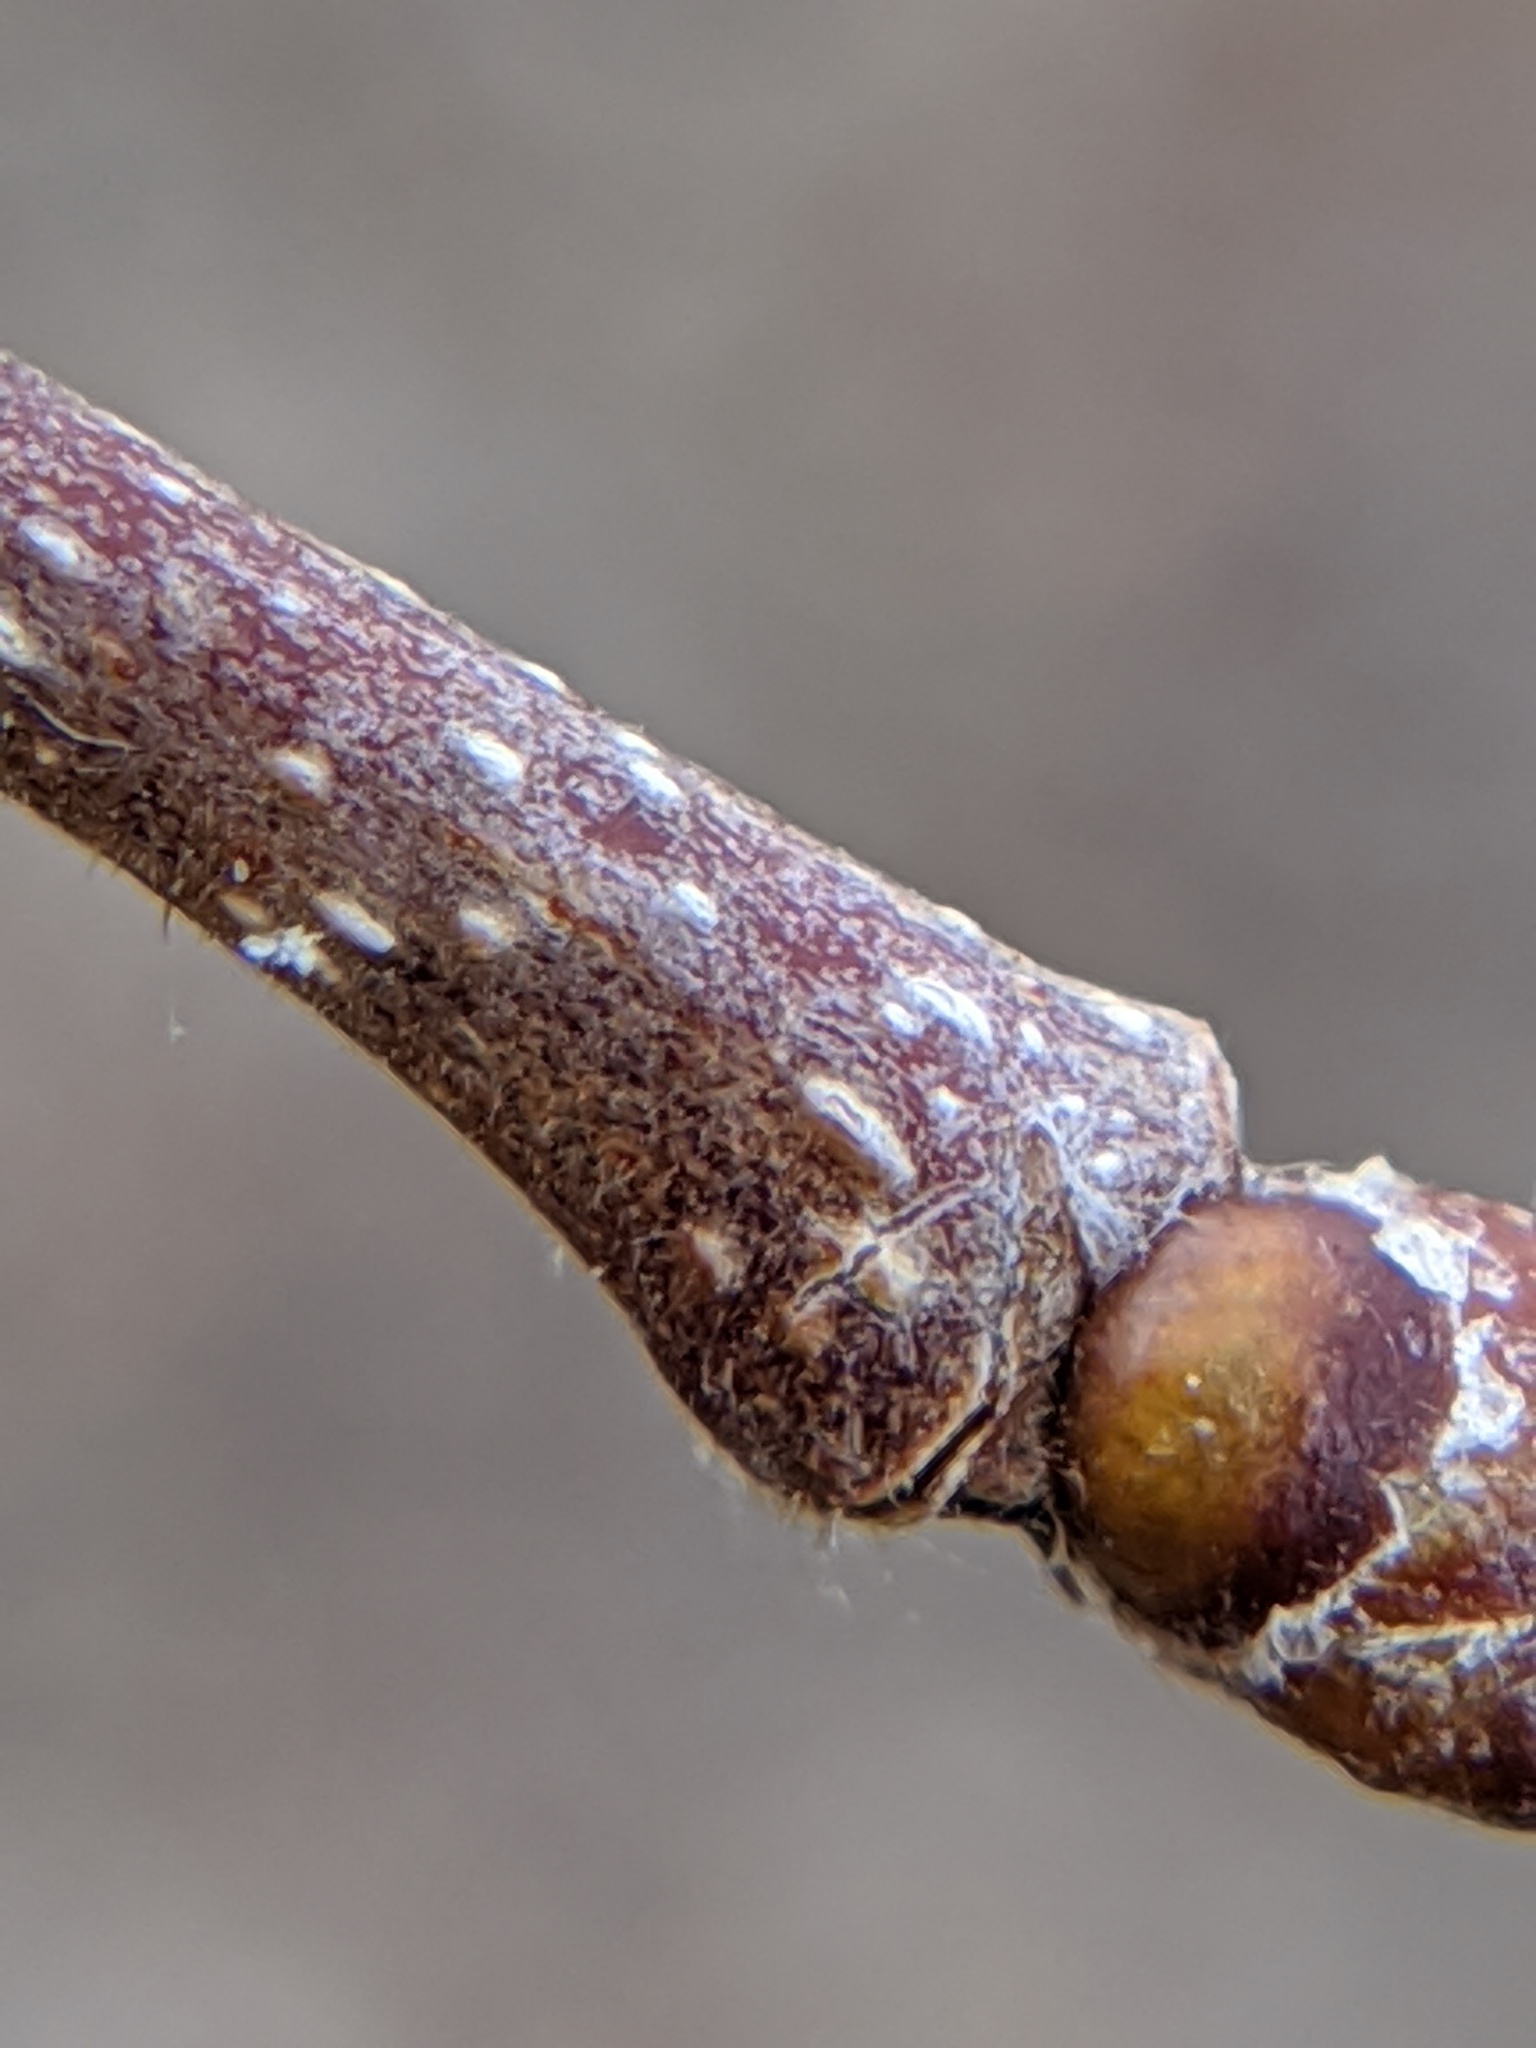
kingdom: Plantae
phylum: Tracheophyta
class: Magnoliopsida
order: Fagales
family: Betulaceae
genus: Corylus
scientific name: Corylus americana
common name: American hazel
